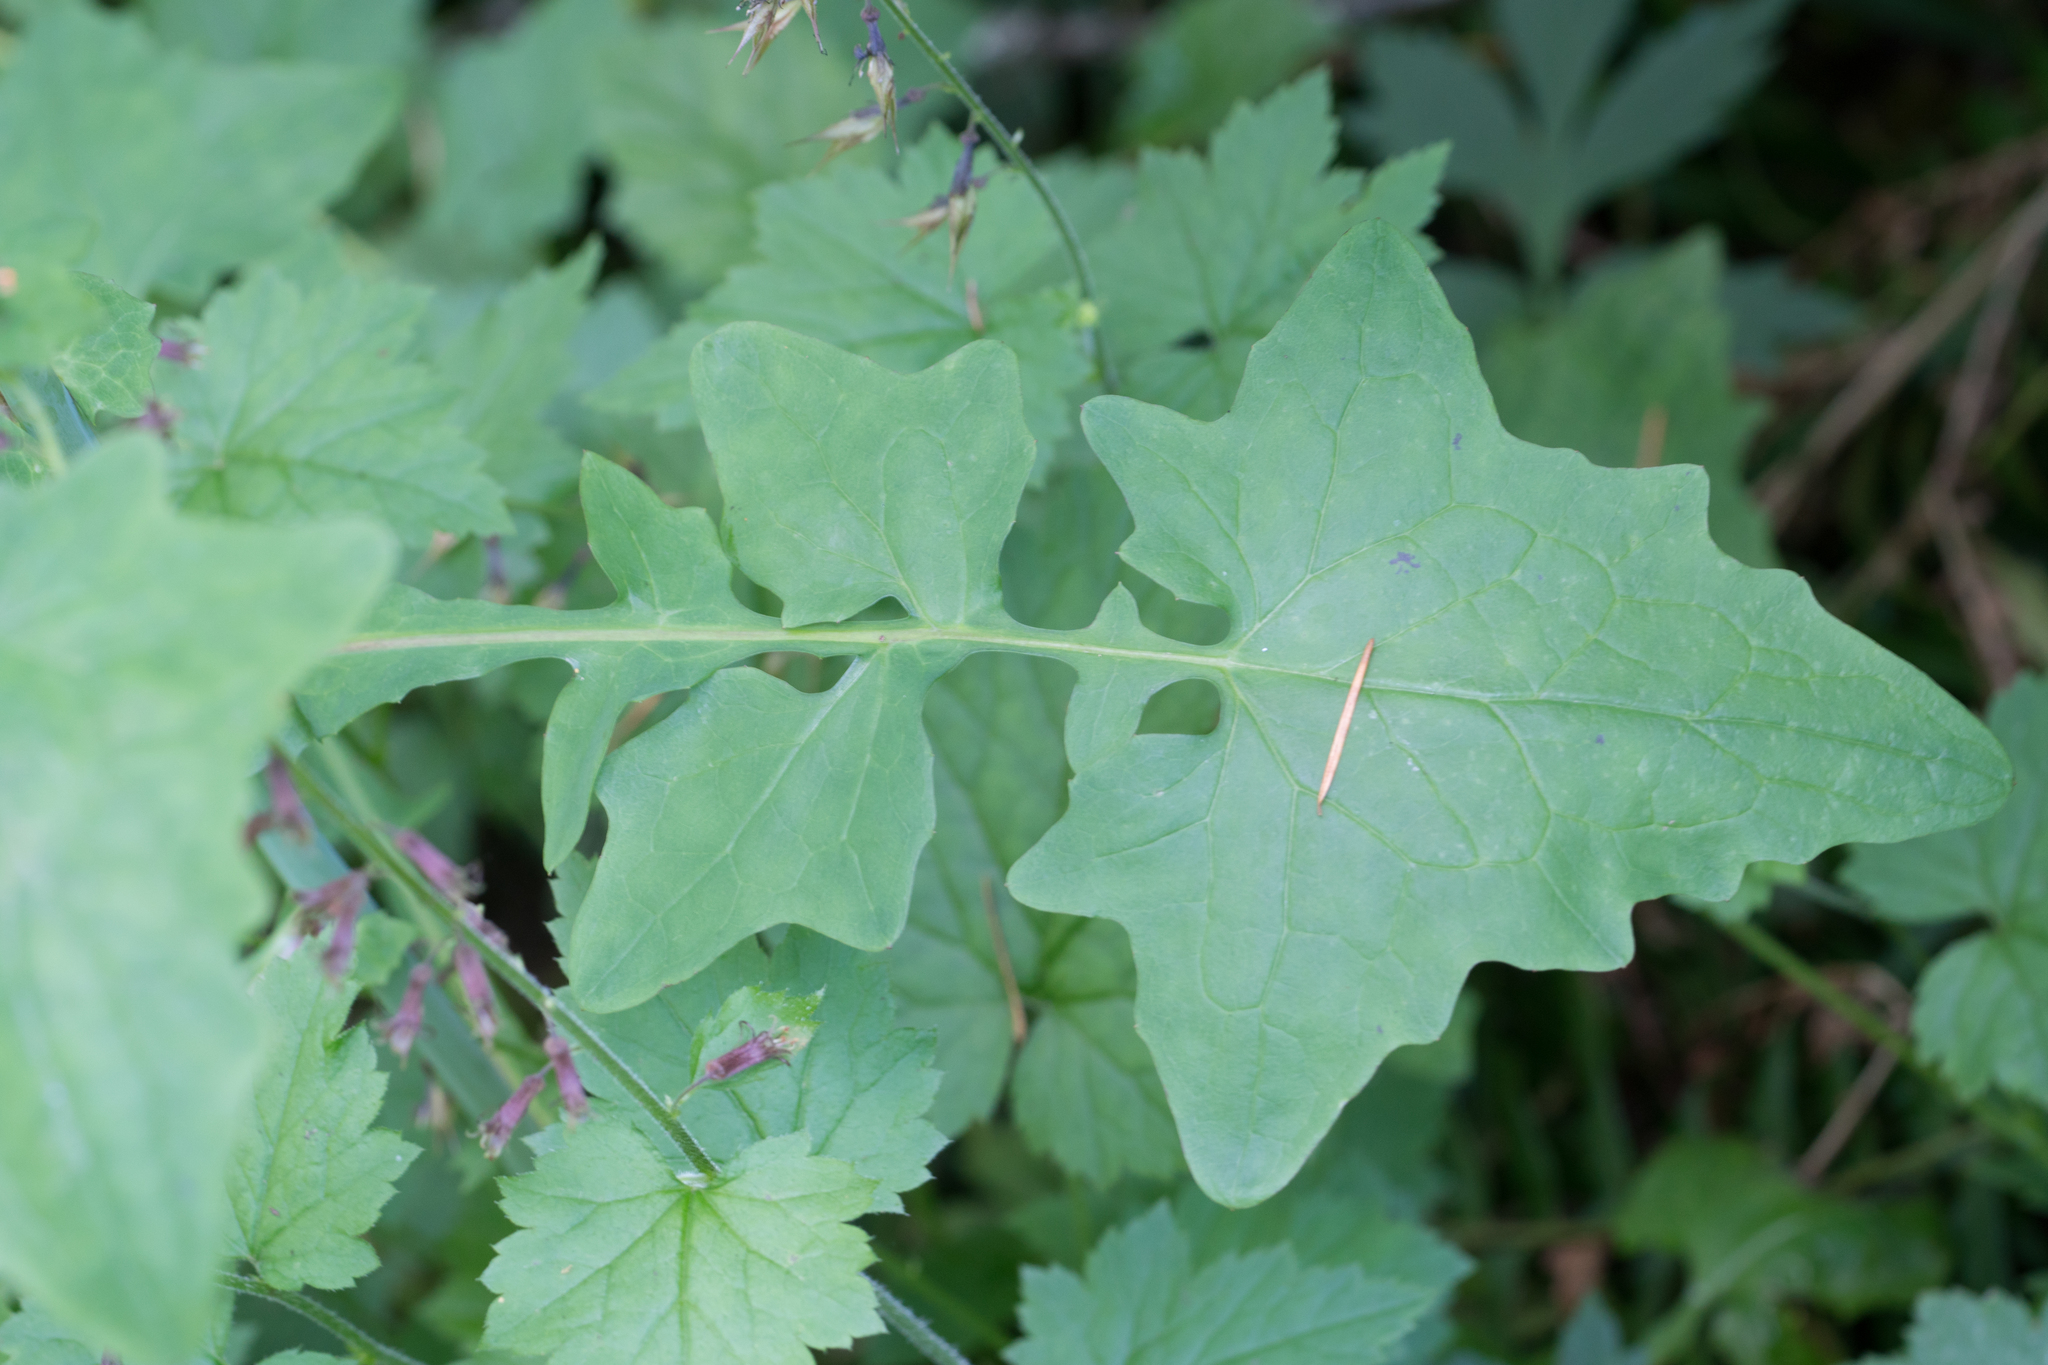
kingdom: Plantae
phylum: Tracheophyta
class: Magnoliopsida
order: Asterales
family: Asteraceae
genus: Mycelis
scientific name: Mycelis muralis
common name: Wall lettuce
